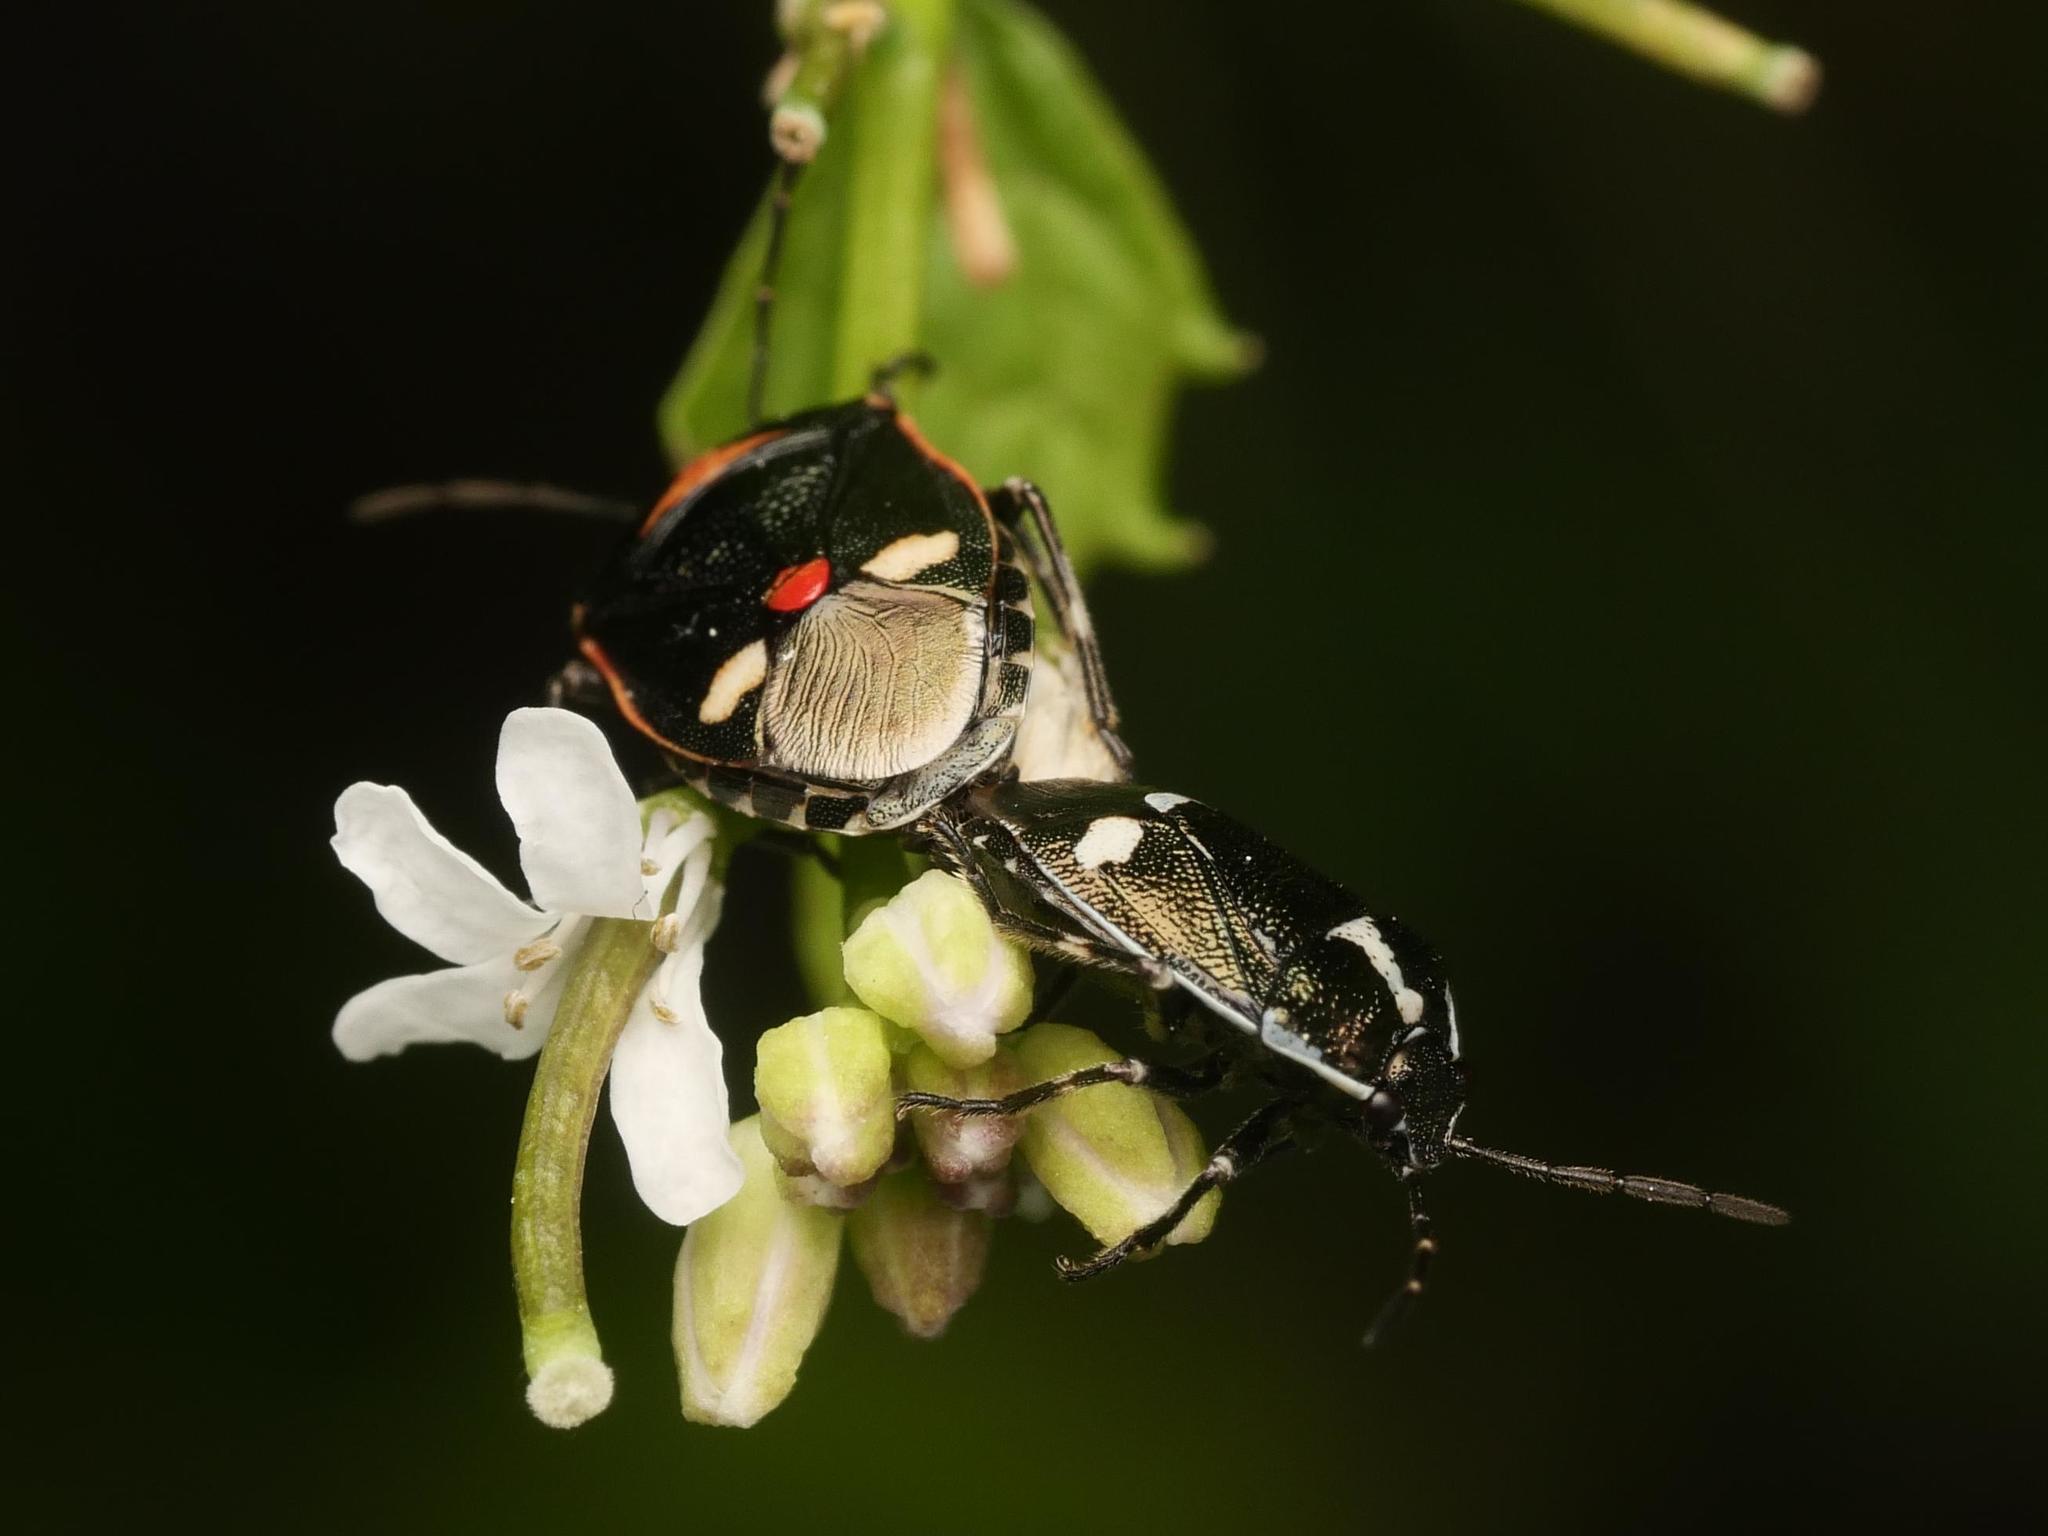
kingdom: Animalia
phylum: Arthropoda
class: Insecta
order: Hemiptera
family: Pentatomidae
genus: Eurydema
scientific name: Eurydema oleracea
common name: Cabbage bug
